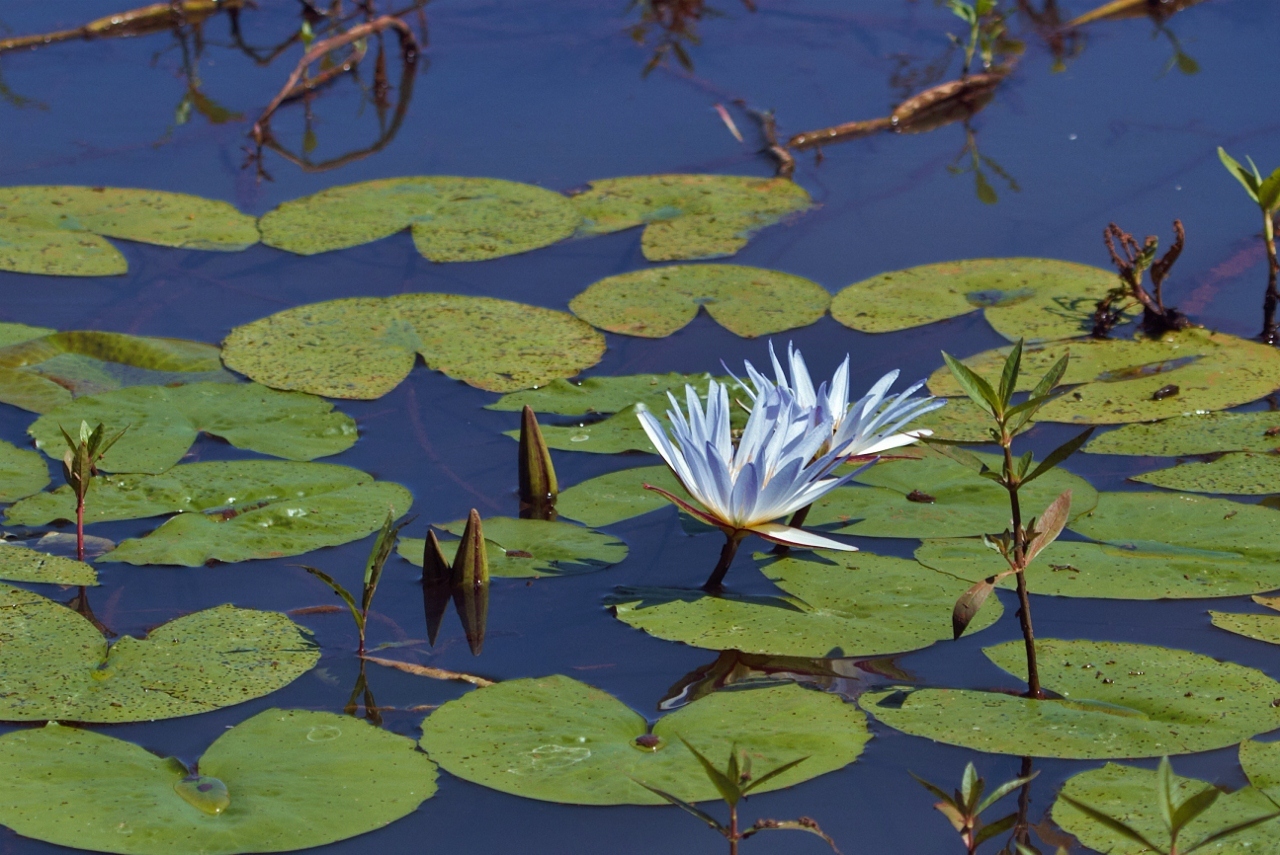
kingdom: Plantae
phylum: Tracheophyta
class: Magnoliopsida
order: Nymphaeales
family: Nymphaeaceae
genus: Nymphaea
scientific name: Nymphaea nouchali
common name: Blue lotus
